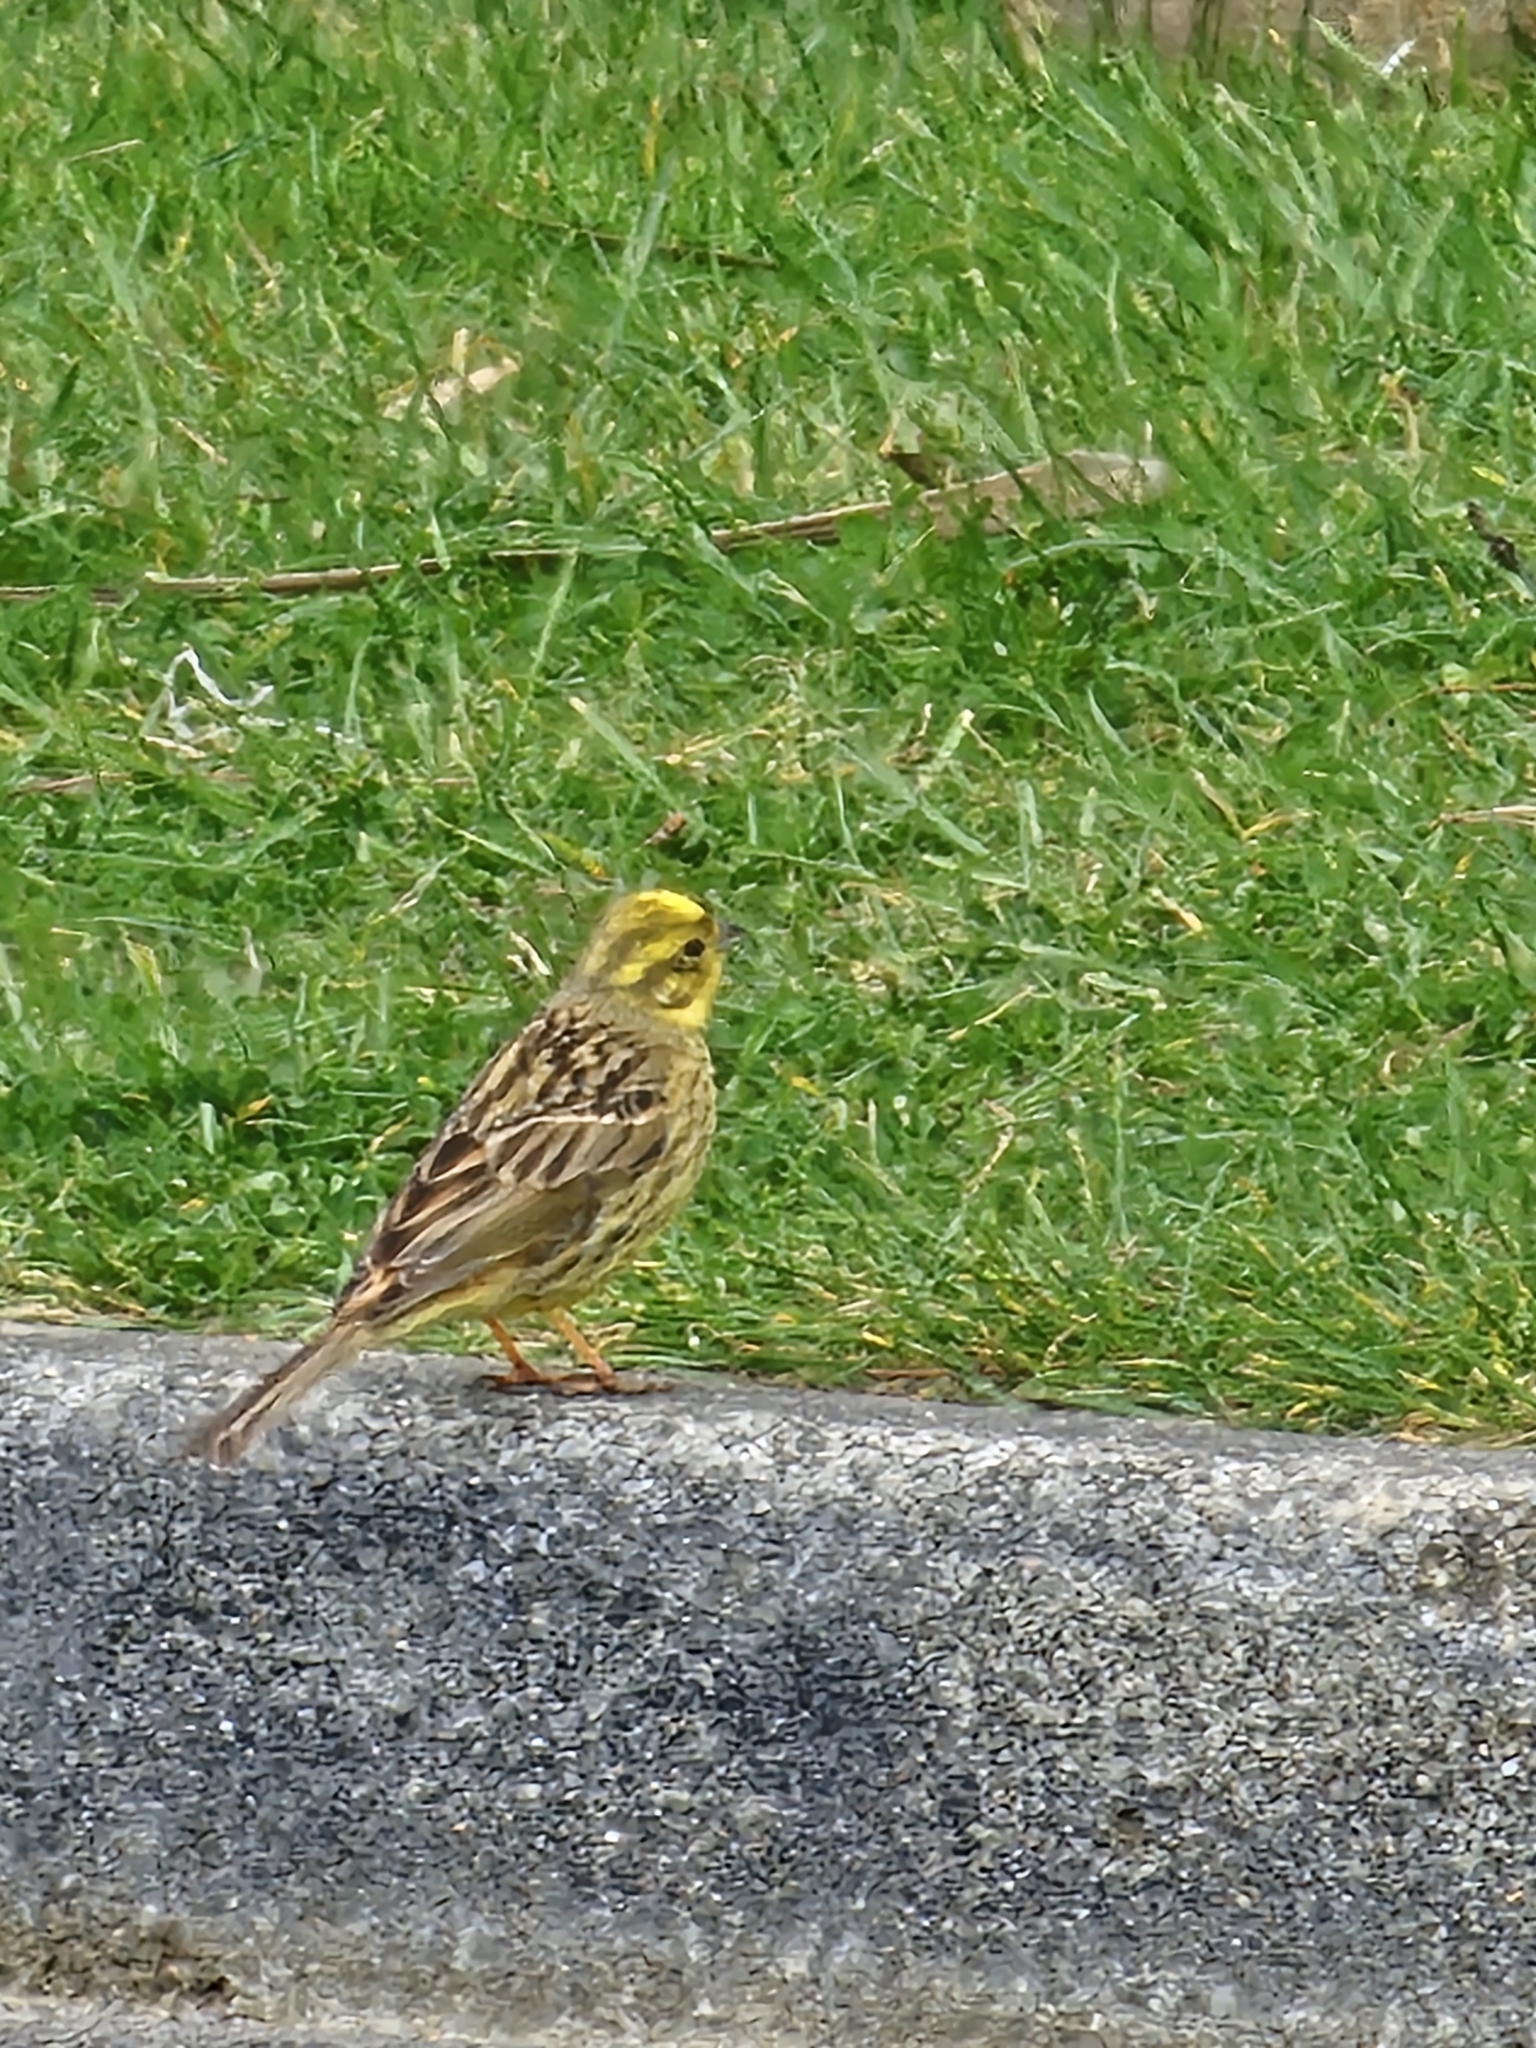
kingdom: Animalia
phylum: Chordata
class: Aves
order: Passeriformes
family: Emberizidae
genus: Emberiza
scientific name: Emberiza citrinella
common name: Yellowhammer
